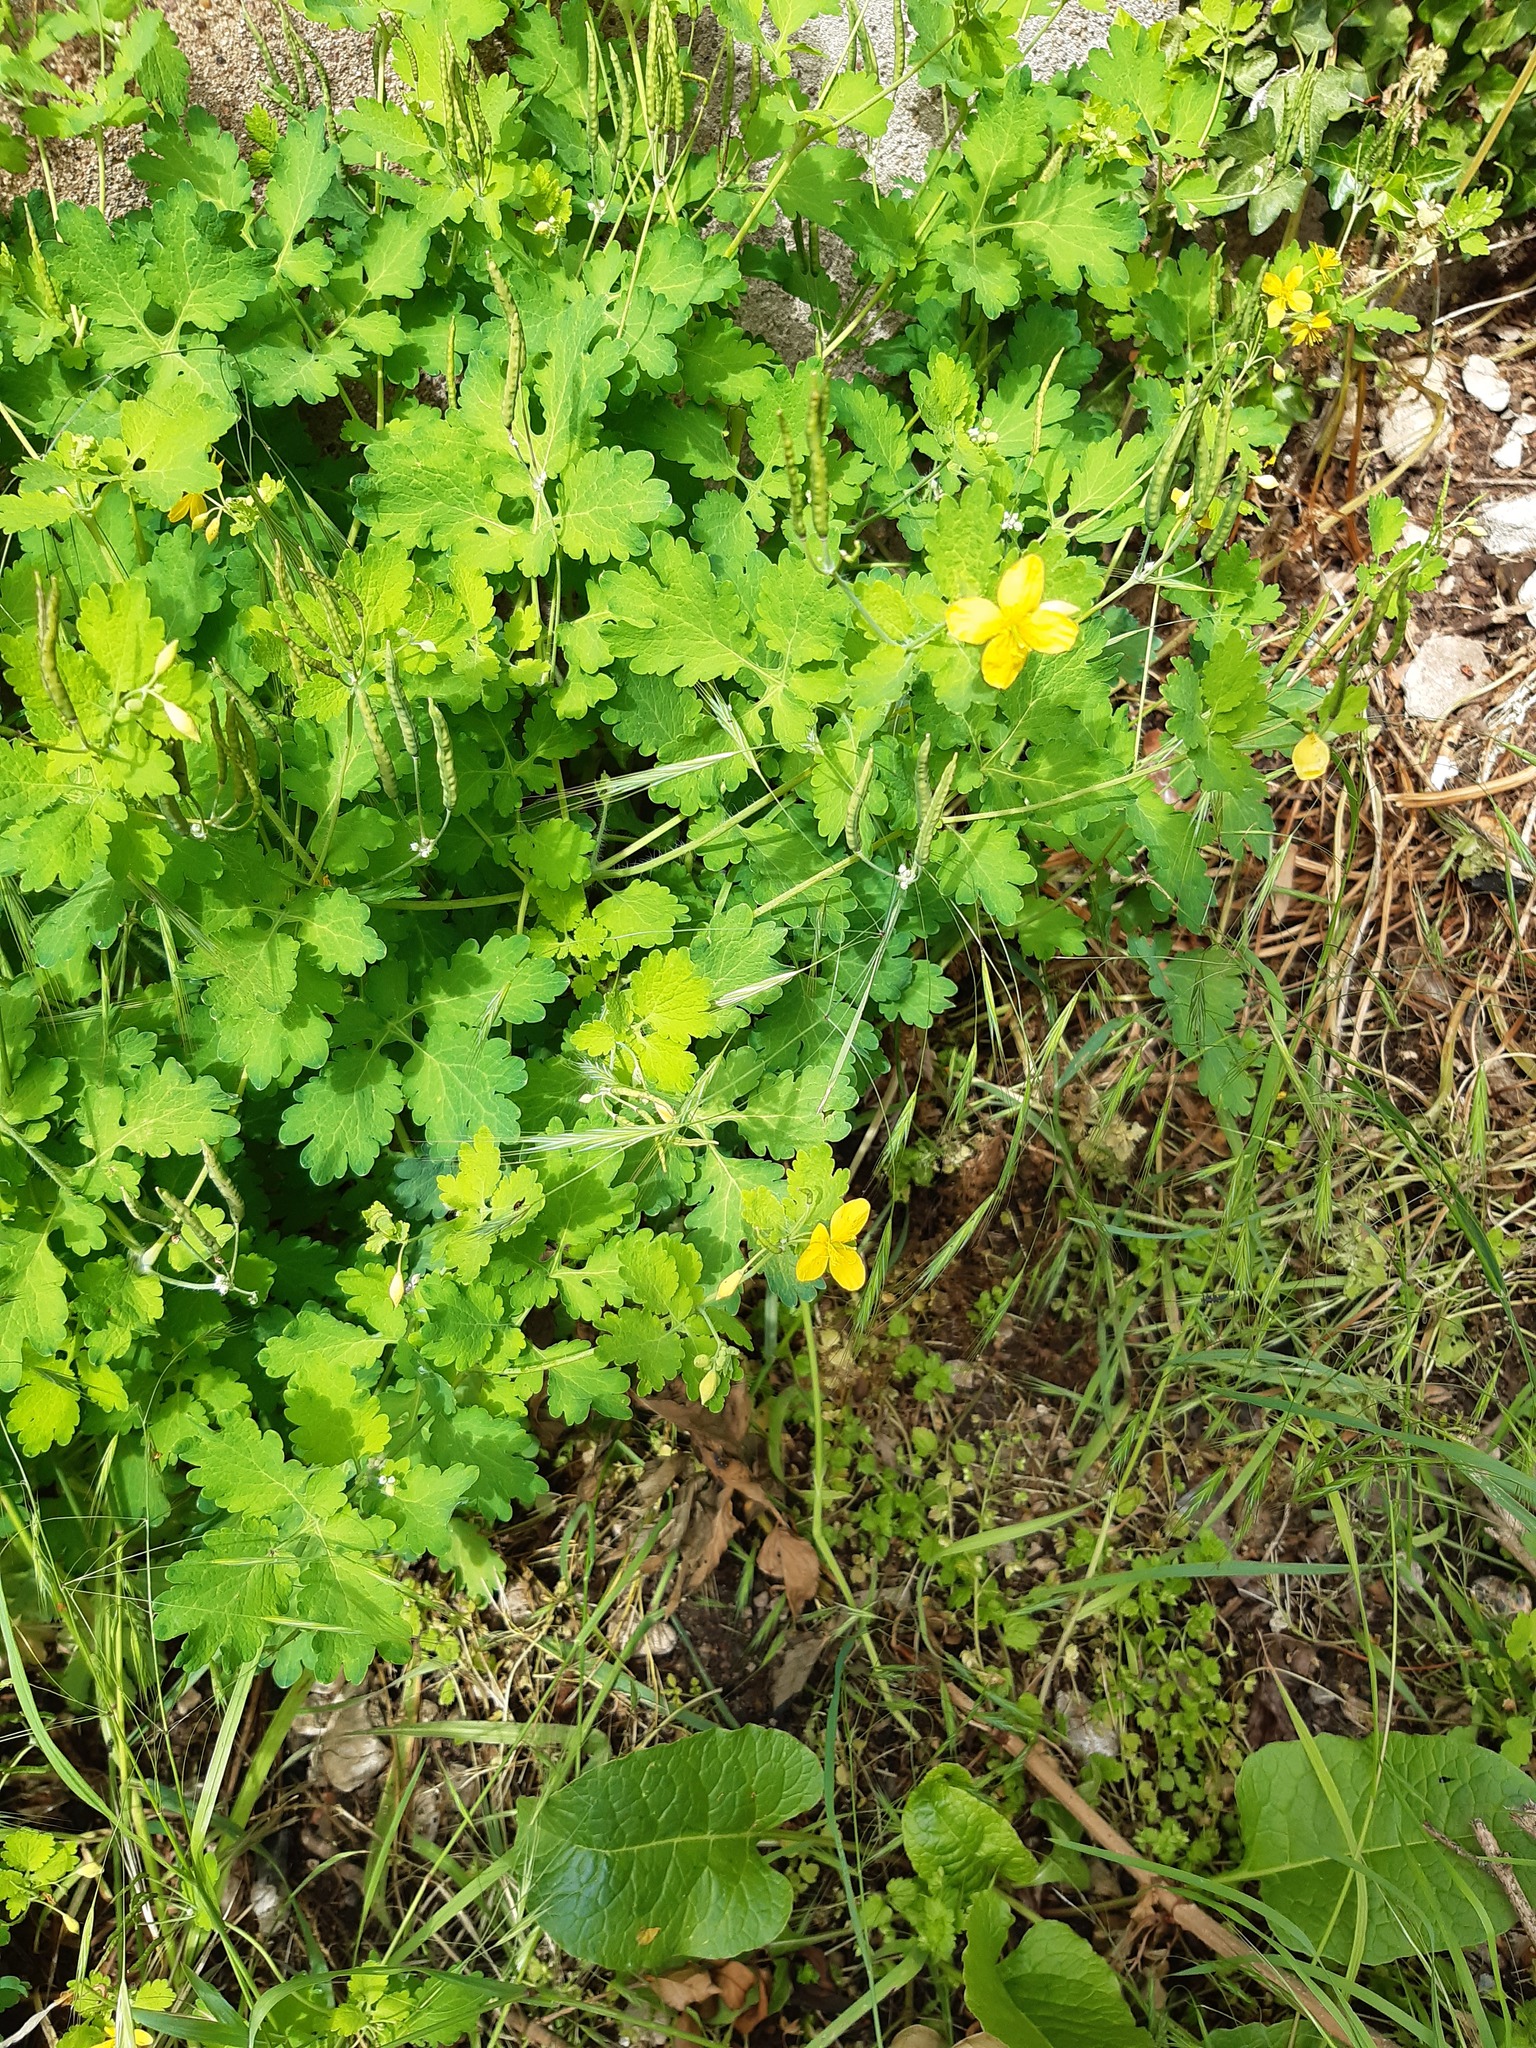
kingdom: Plantae
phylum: Tracheophyta
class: Magnoliopsida
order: Ranunculales
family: Papaveraceae
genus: Chelidonium
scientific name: Chelidonium majus
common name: Greater celandine
